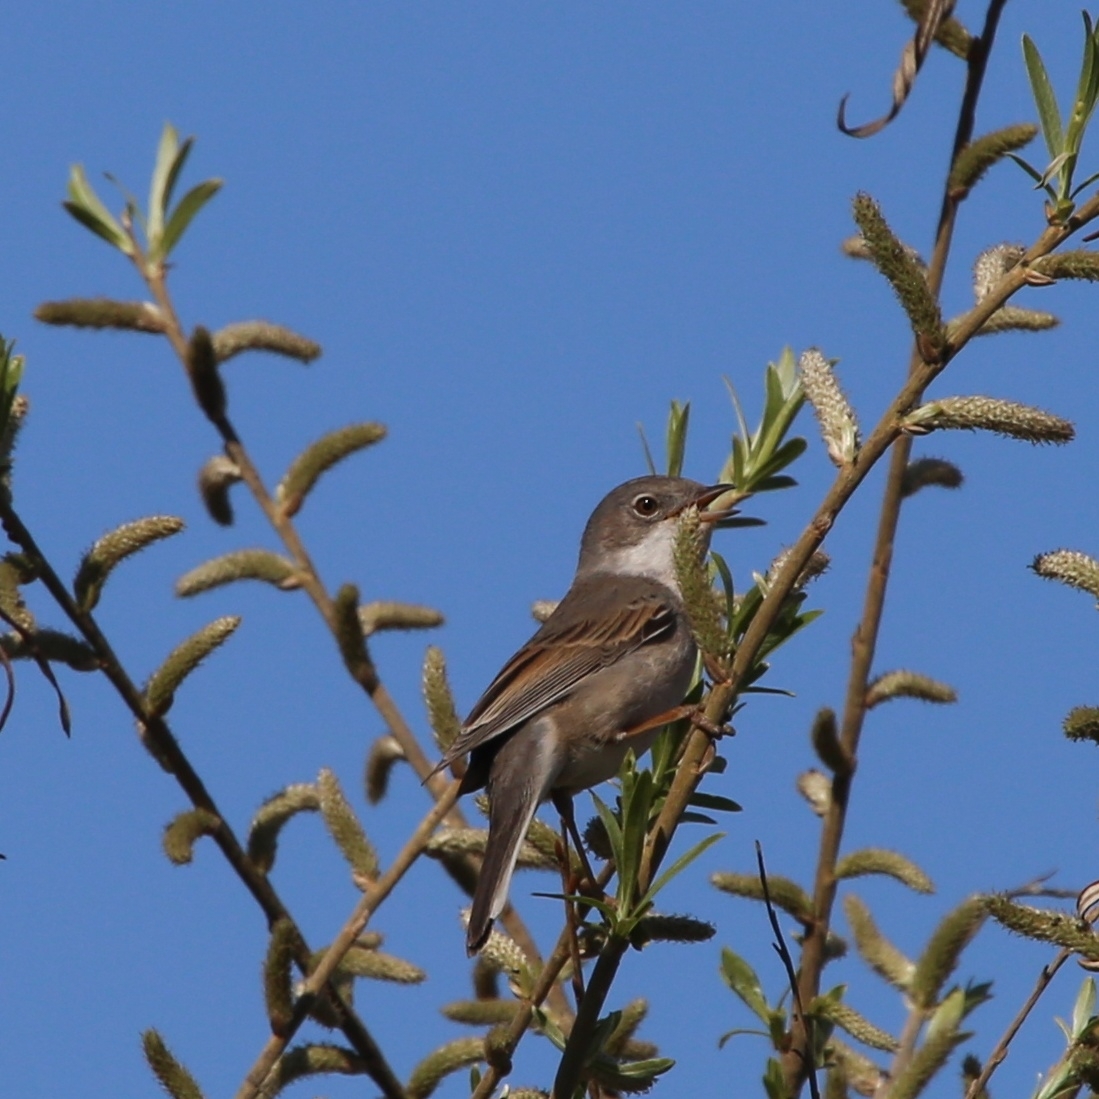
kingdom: Animalia
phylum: Chordata
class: Aves
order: Passeriformes
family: Sylviidae
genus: Sylvia
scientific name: Sylvia communis
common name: Common whitethroat
